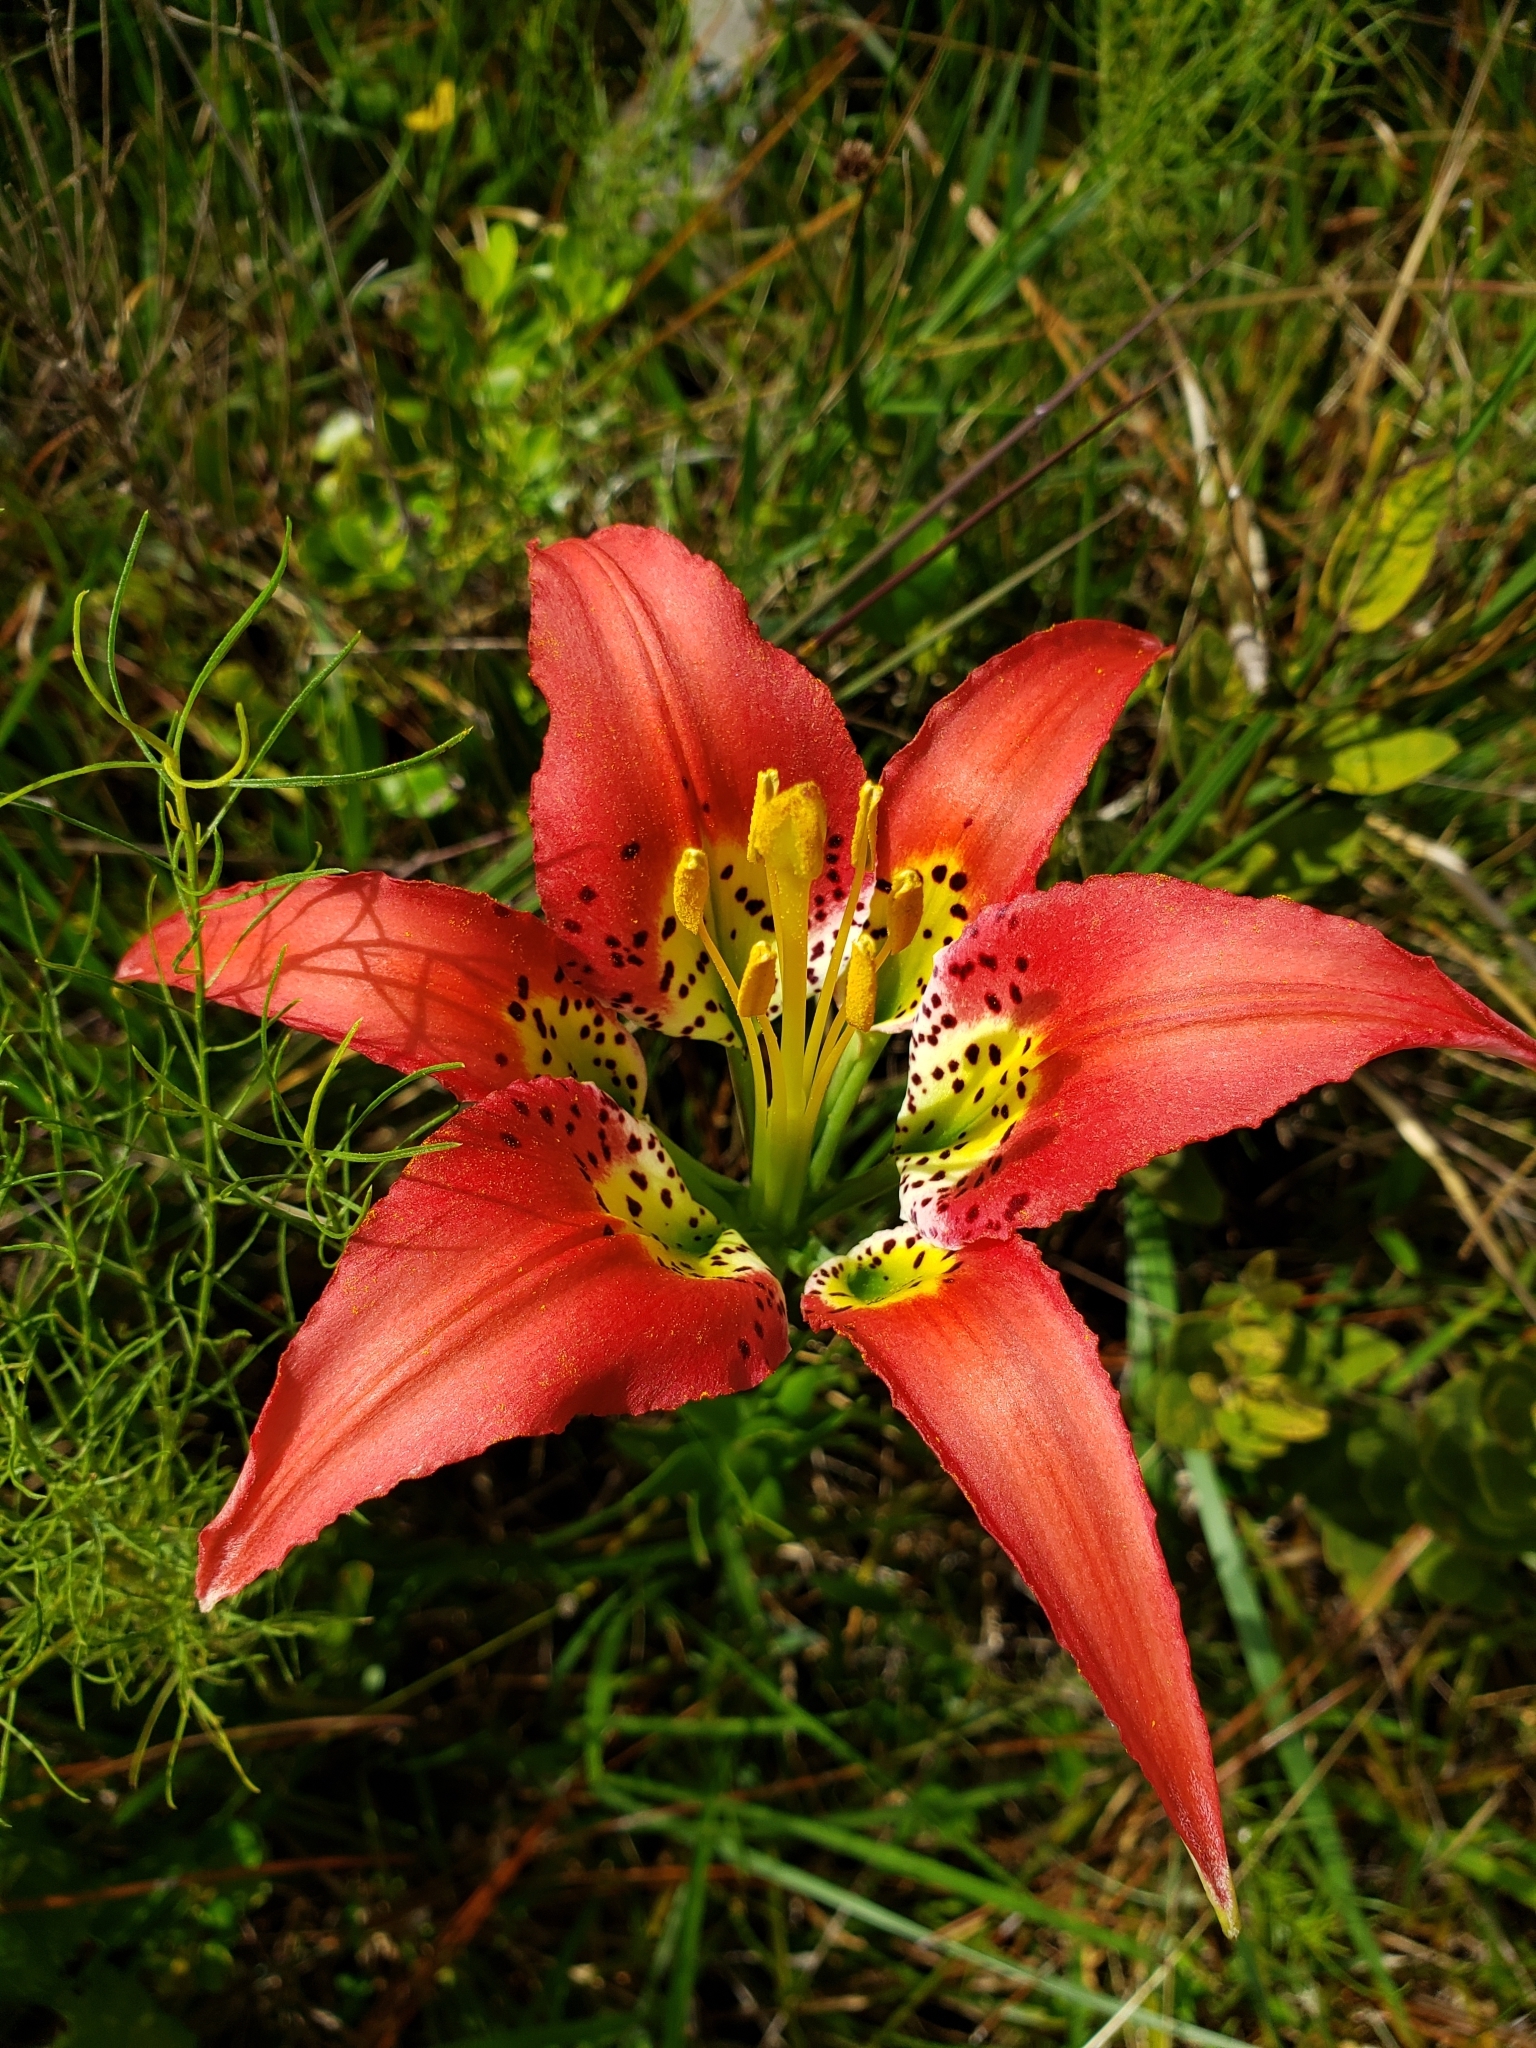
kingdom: Plantae
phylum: Tracheophyta
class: Liliopsida
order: Liliales
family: Liliaceae
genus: Lilium
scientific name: Lilium catesbaei
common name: Catesby's lily
